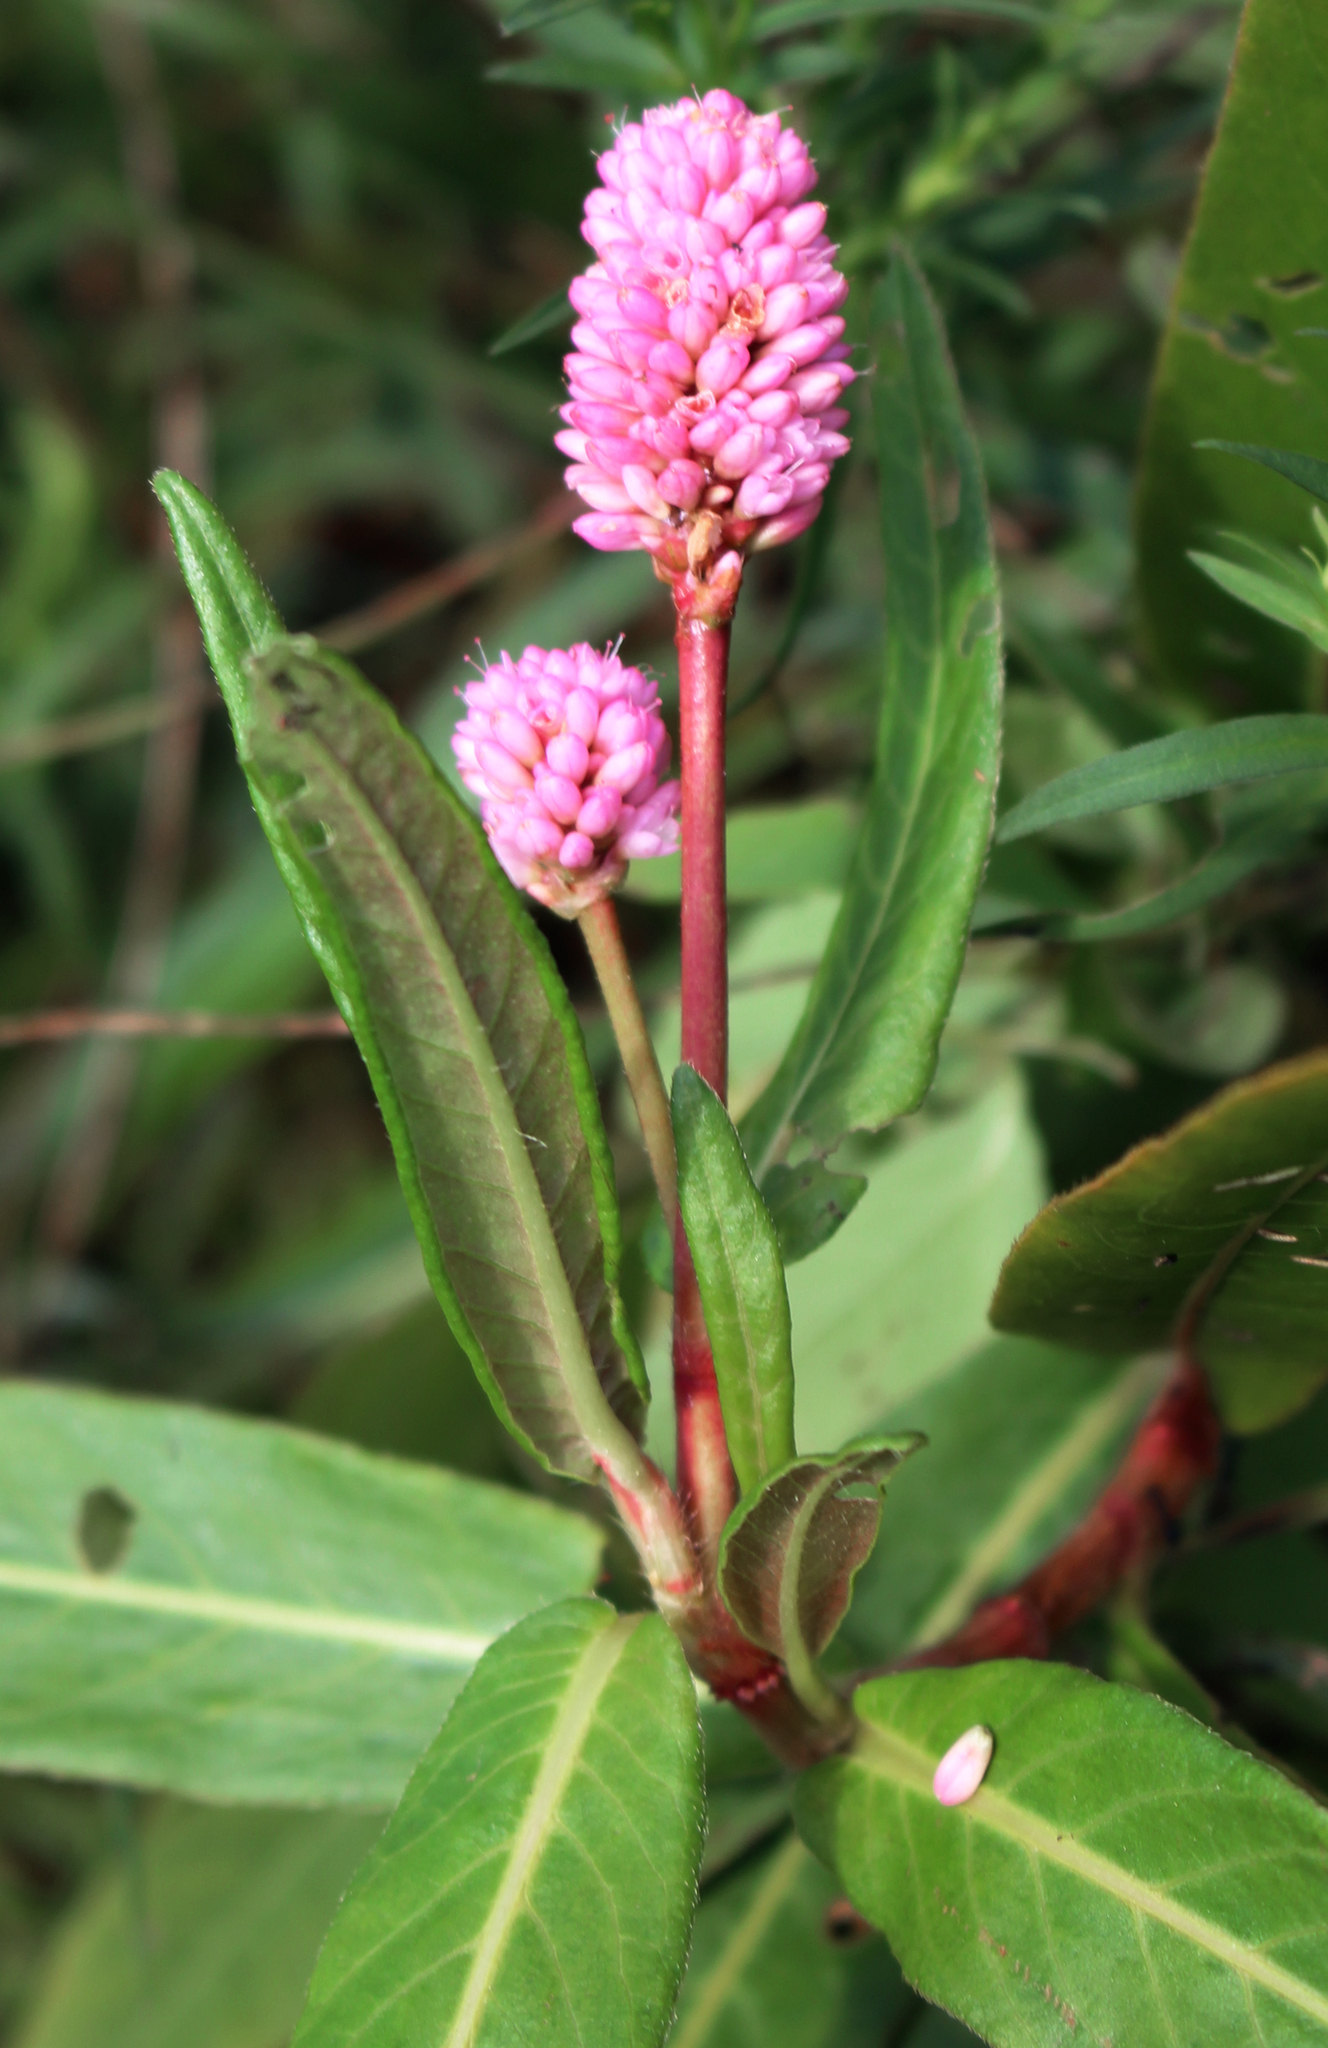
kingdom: Plantae
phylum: Tracheophyta
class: Magnoliopsida
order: Caryophyllales
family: Polygonaceae
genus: Persicaria
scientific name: Persicaria amphibia
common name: Amphibious bistort
